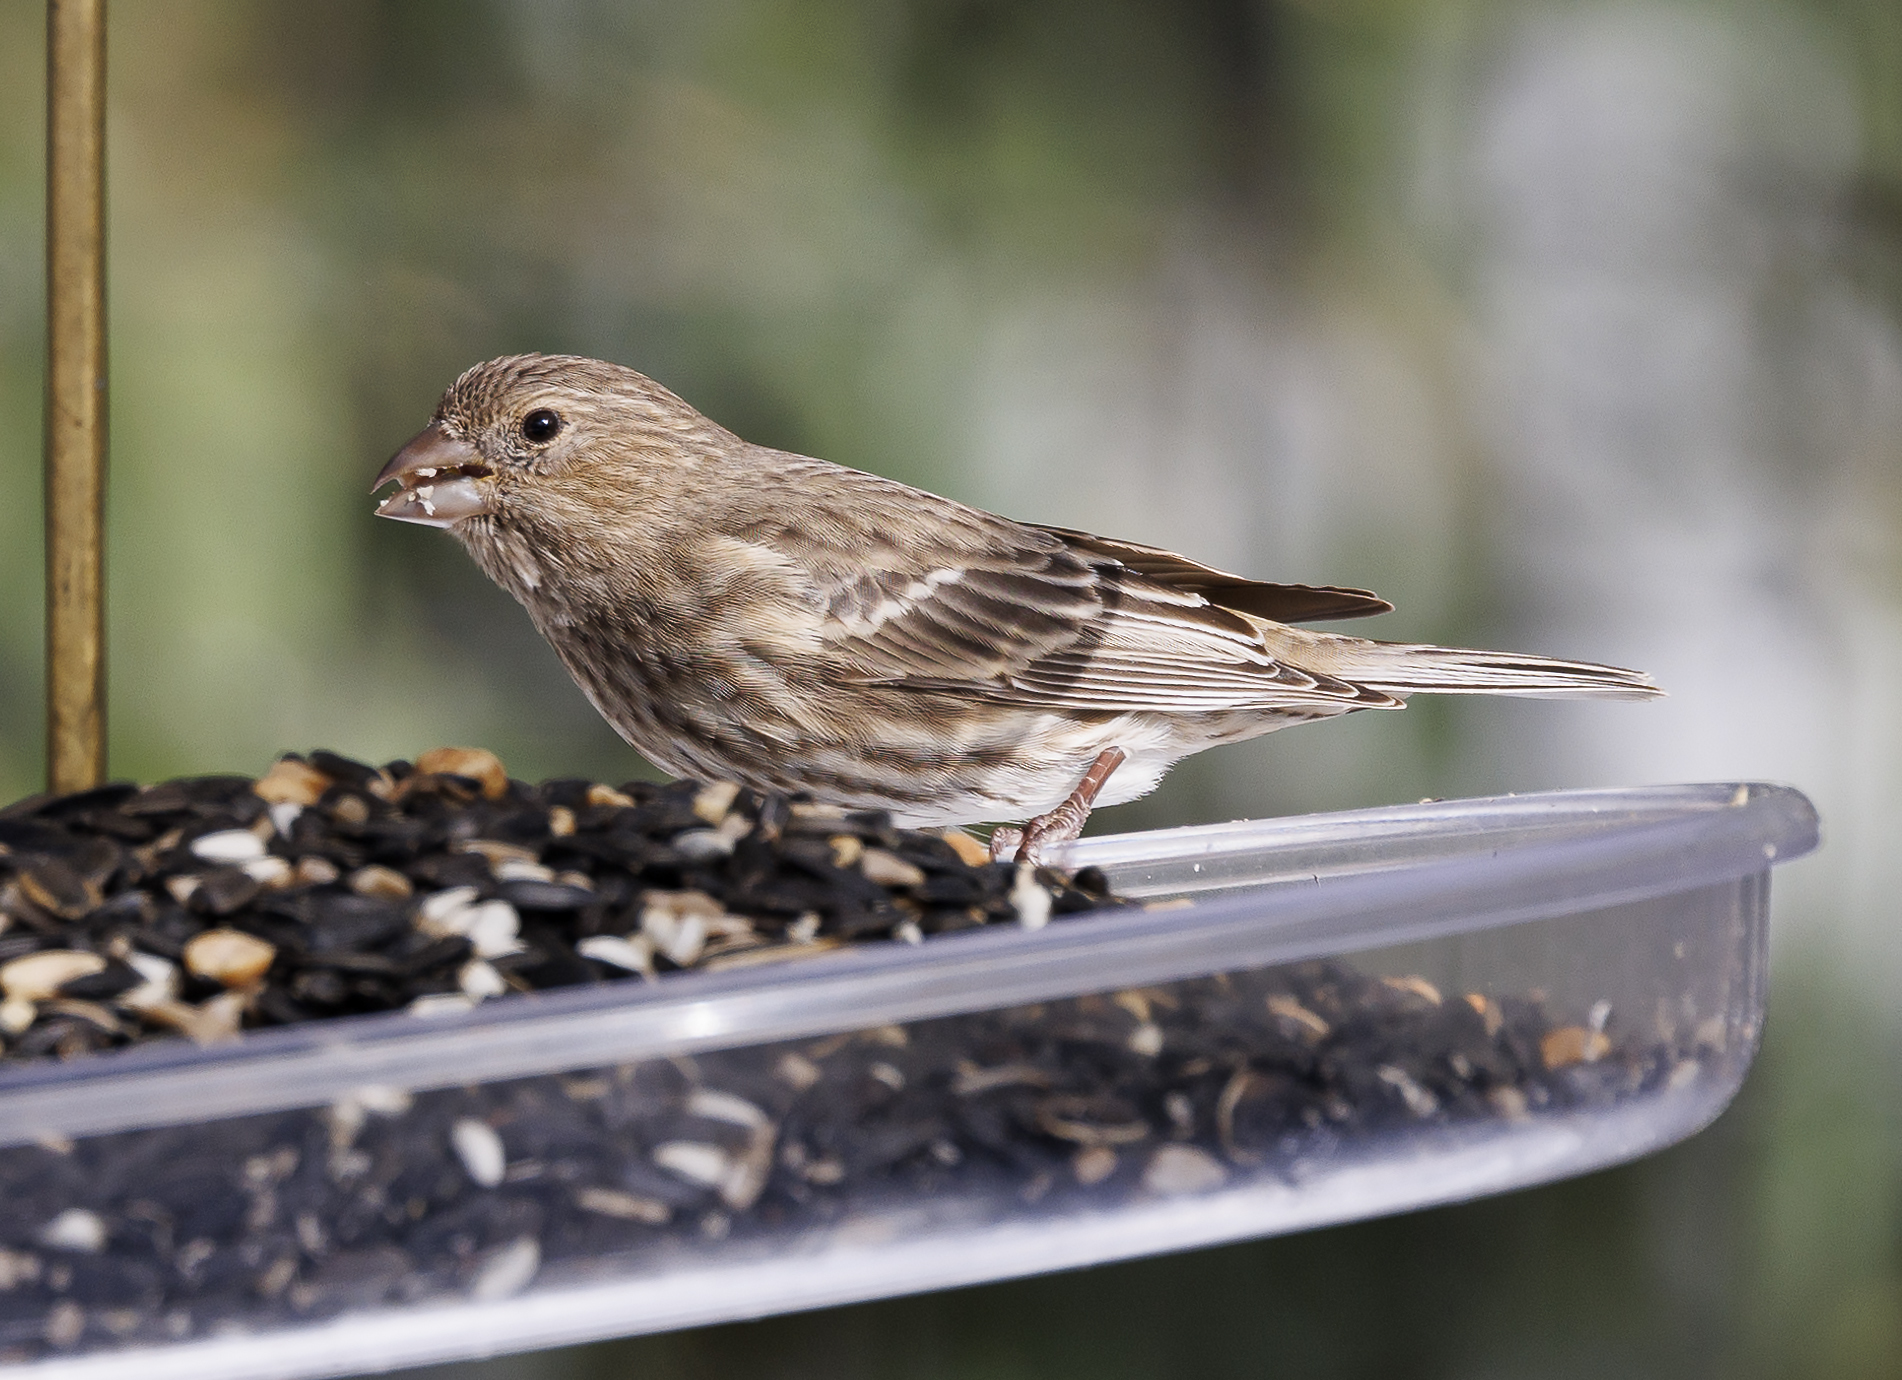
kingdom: Animalia
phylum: Chordata
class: Aves
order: Passeriformes
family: Fringillidae
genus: Haemorhous
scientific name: Haemorhous mexicanus
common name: House finch
